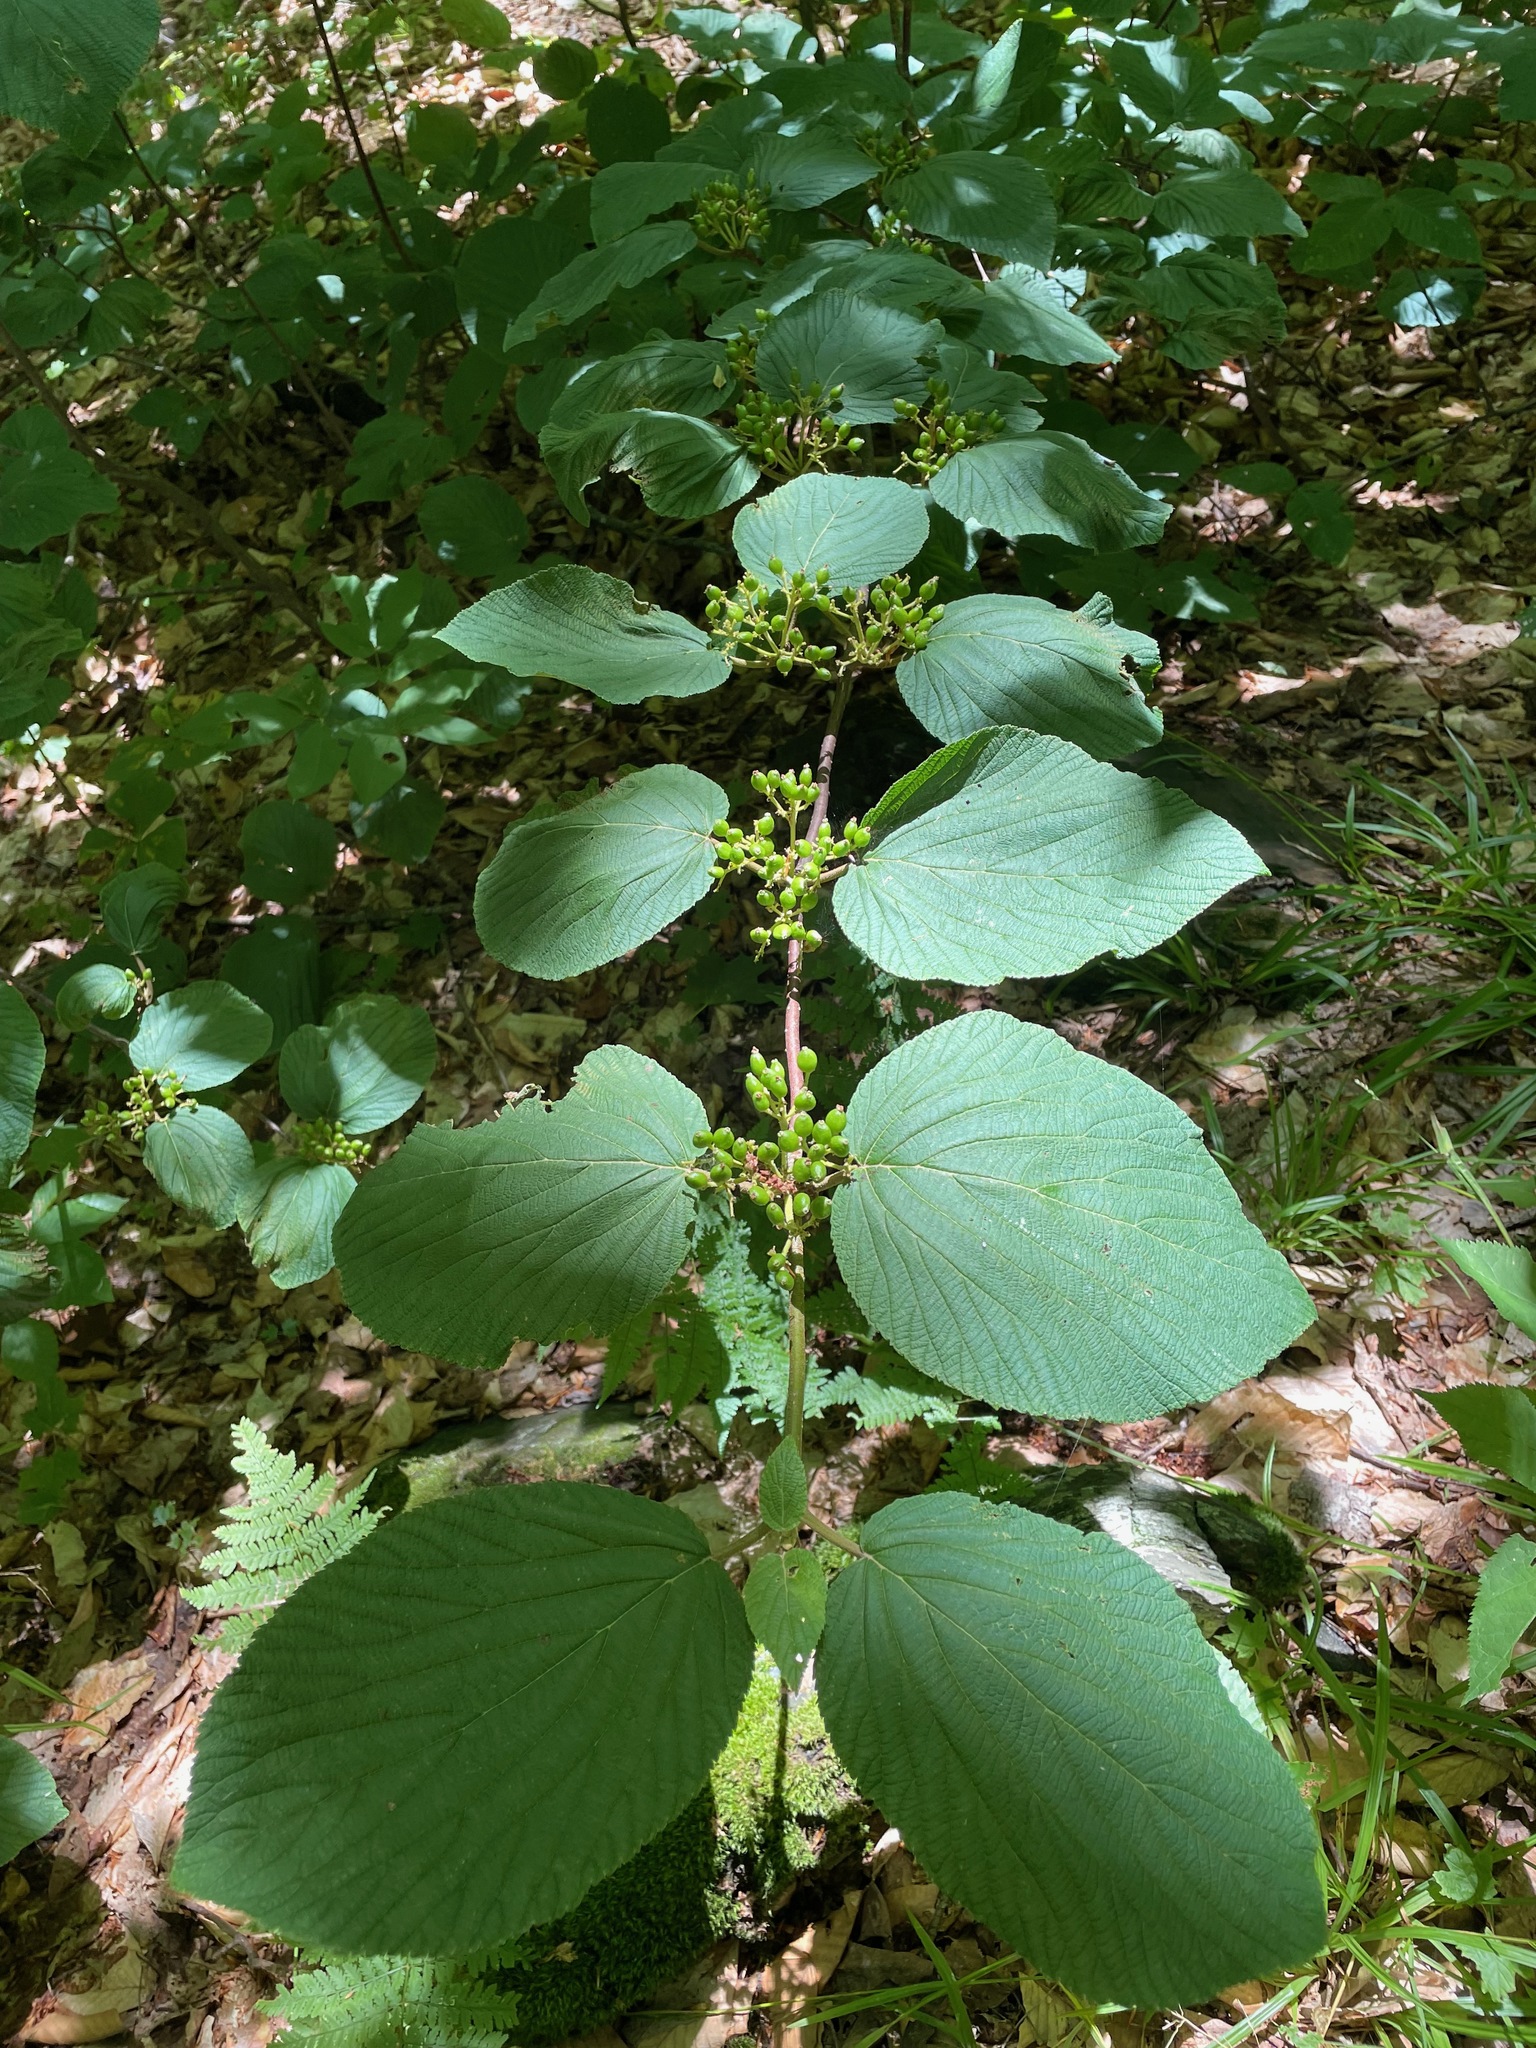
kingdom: Plantae
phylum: Tracheophyta
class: Magnoliopsida
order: Dipsacales
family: Viburnaceae
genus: Viburnum
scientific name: Viburnum lantanoides
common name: Hobblebush
